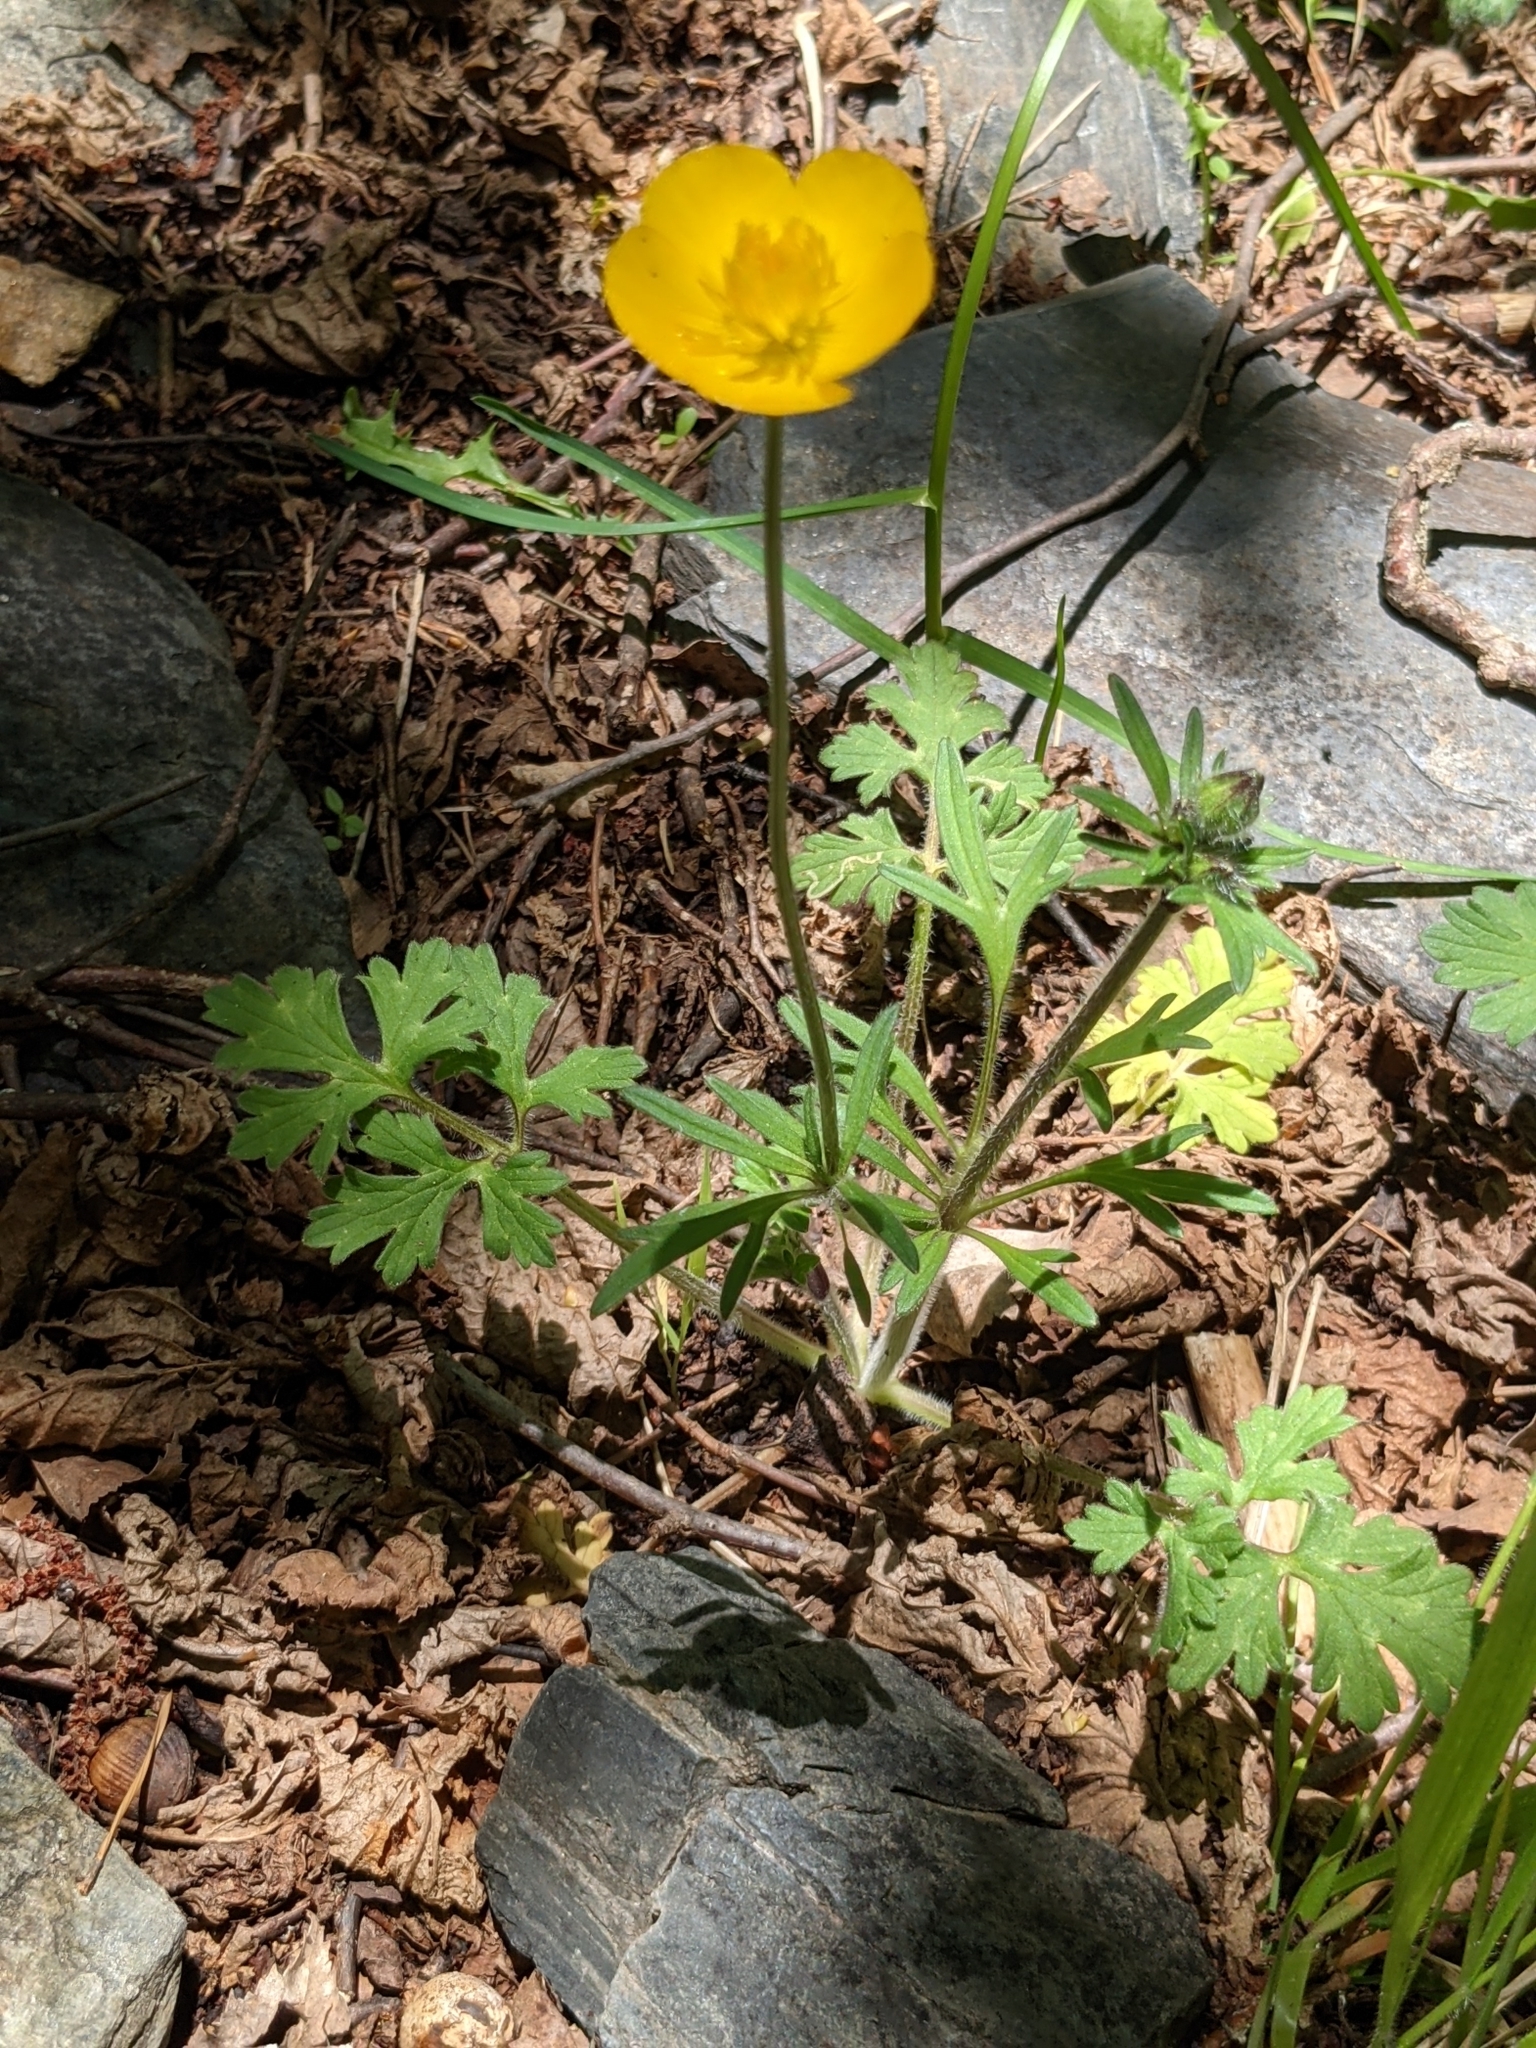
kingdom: Plantae
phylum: Tracheophyta
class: Magnoliopsida
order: Ranunculales
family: Ranunculaceae
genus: Ranunculus
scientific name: Ranunculus bulbosus
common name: Bulbous buttercup
